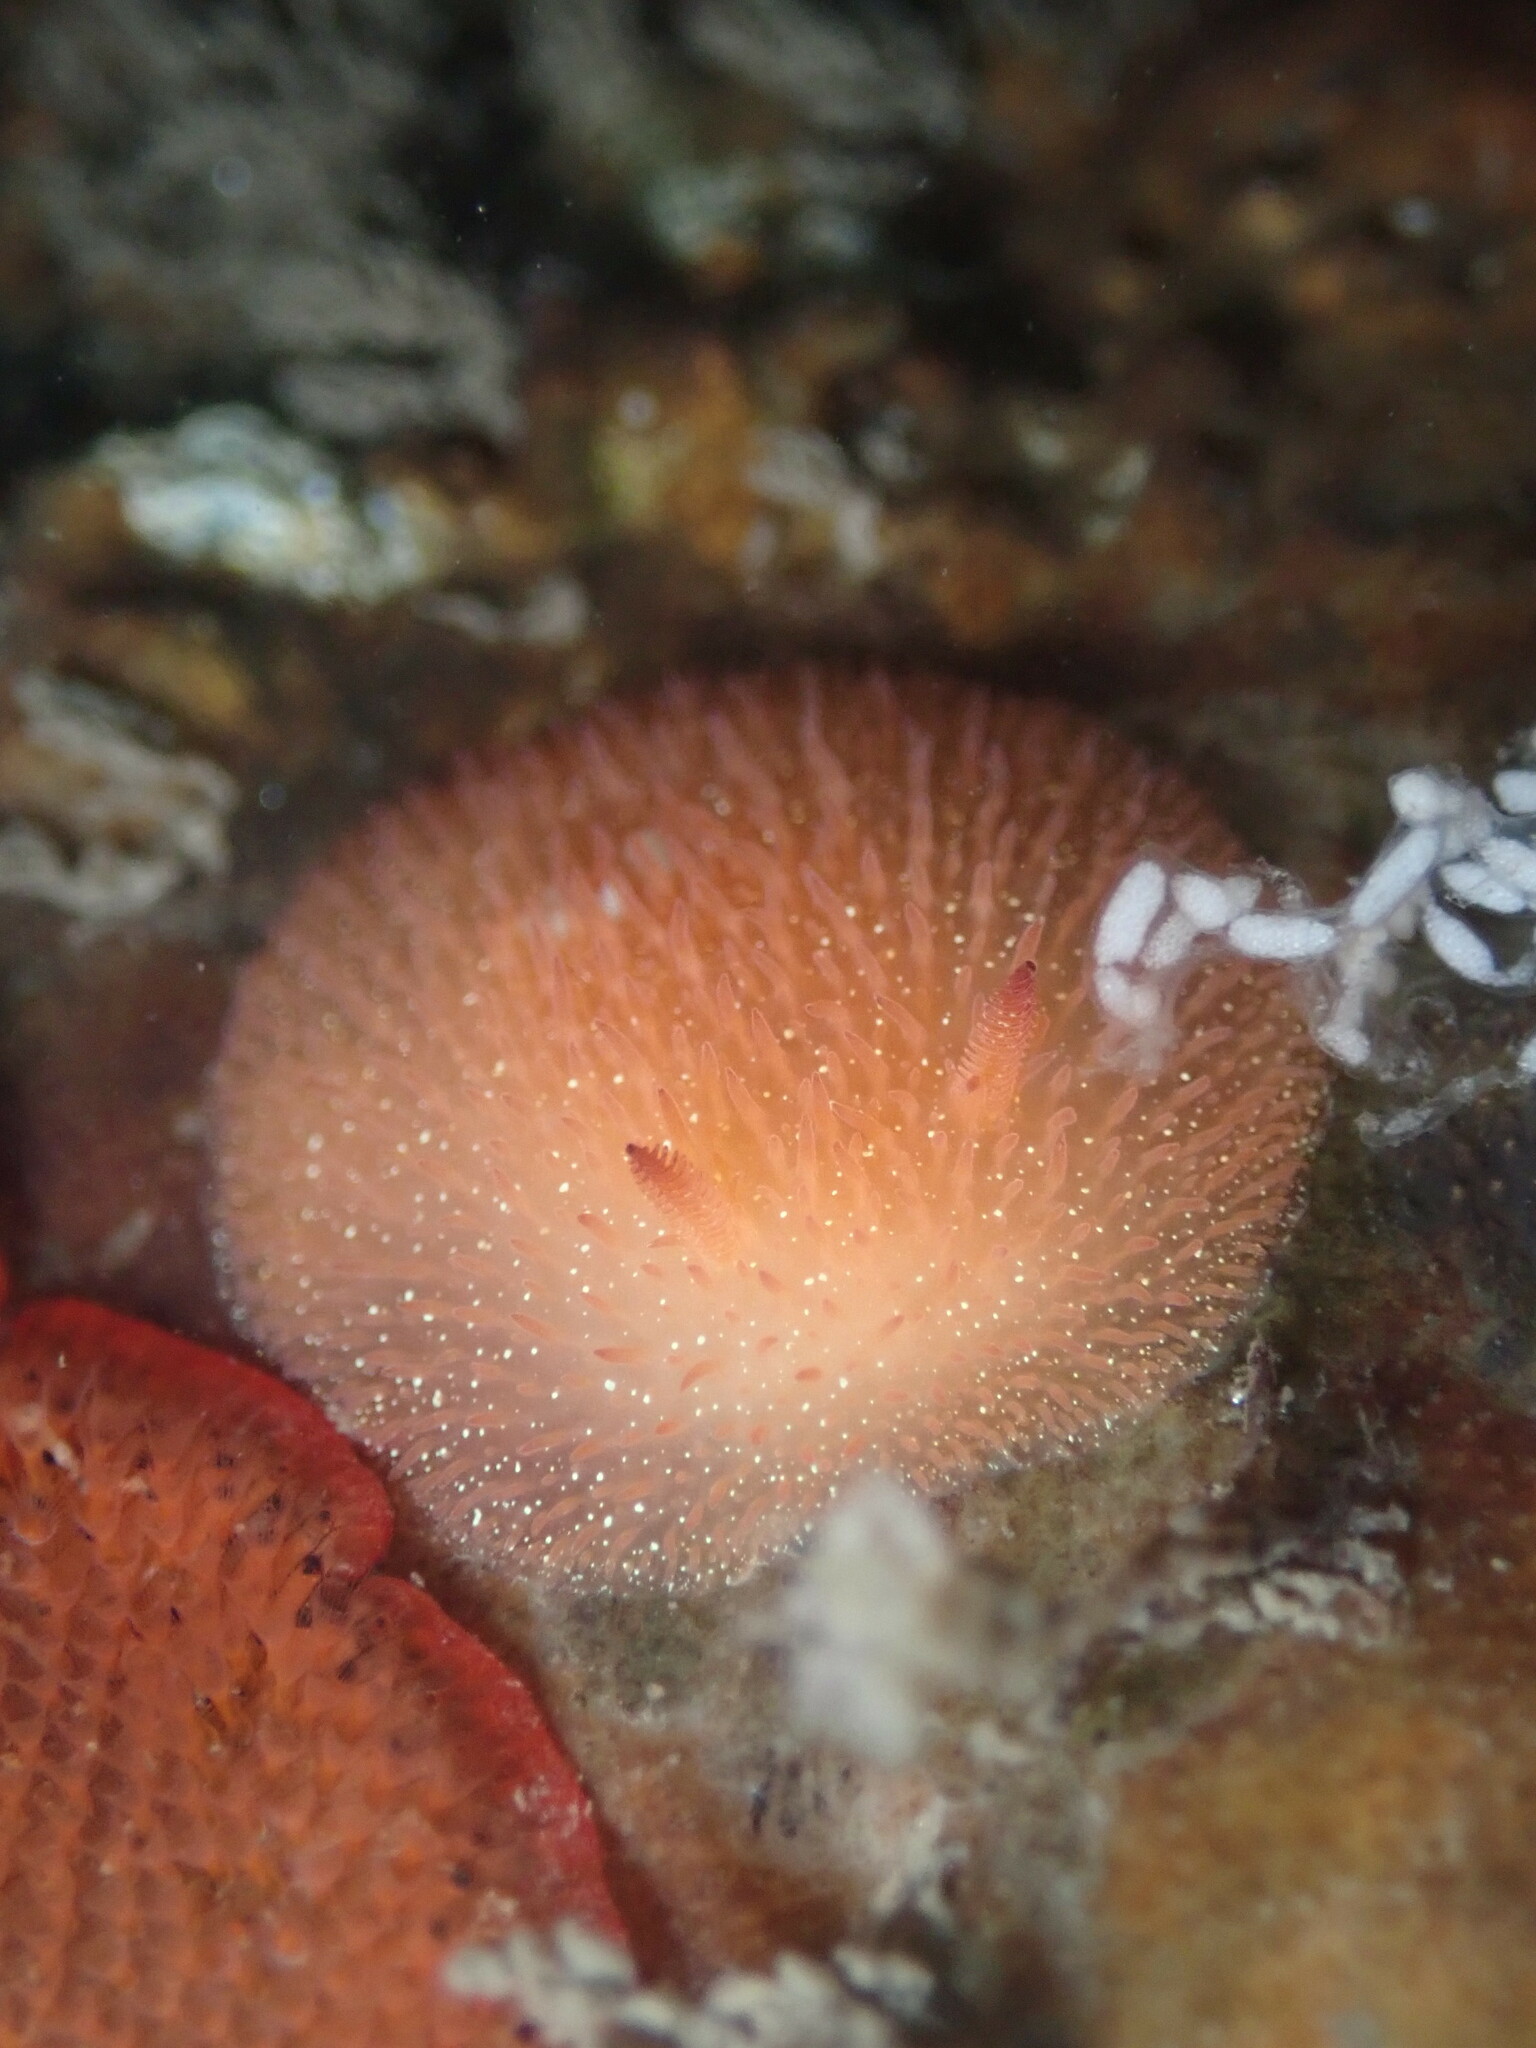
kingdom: Animalia
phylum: Mollusca
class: Gastropoda
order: Nudibranchia
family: Onchidorididae
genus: Acanthodoris
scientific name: Acanthodoris lutea
